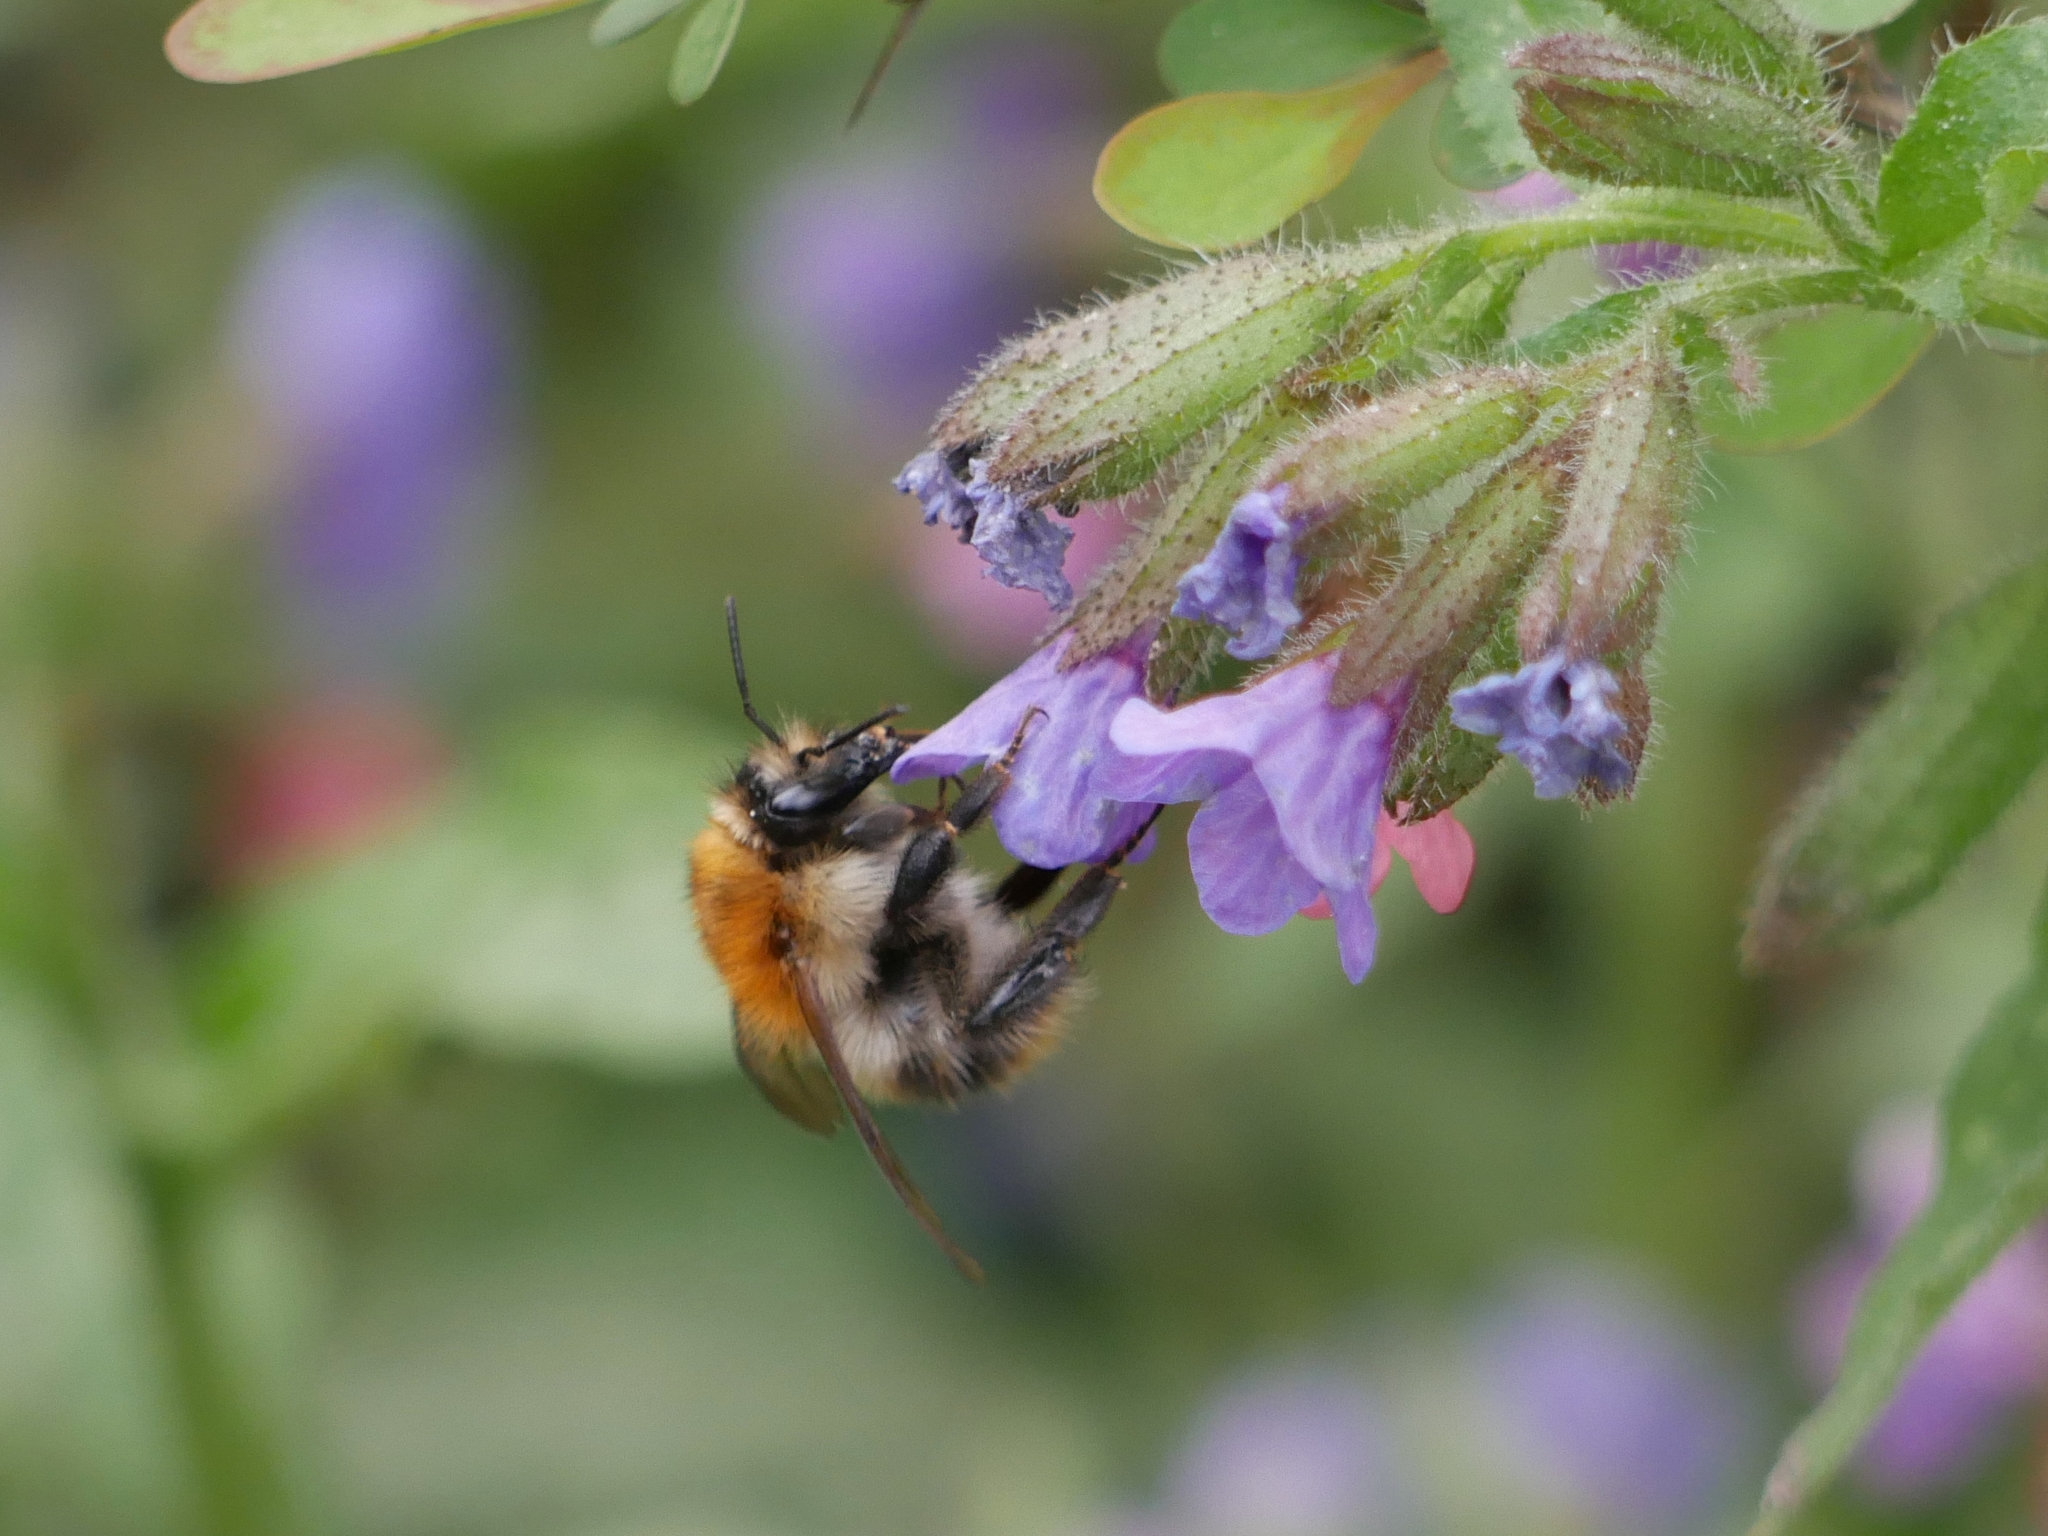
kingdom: Animalia
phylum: Arthropoda
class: Insecta
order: Hymenoptera
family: Apidae
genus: Bombus
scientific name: Bombus pascuorum
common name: Common carder bee
